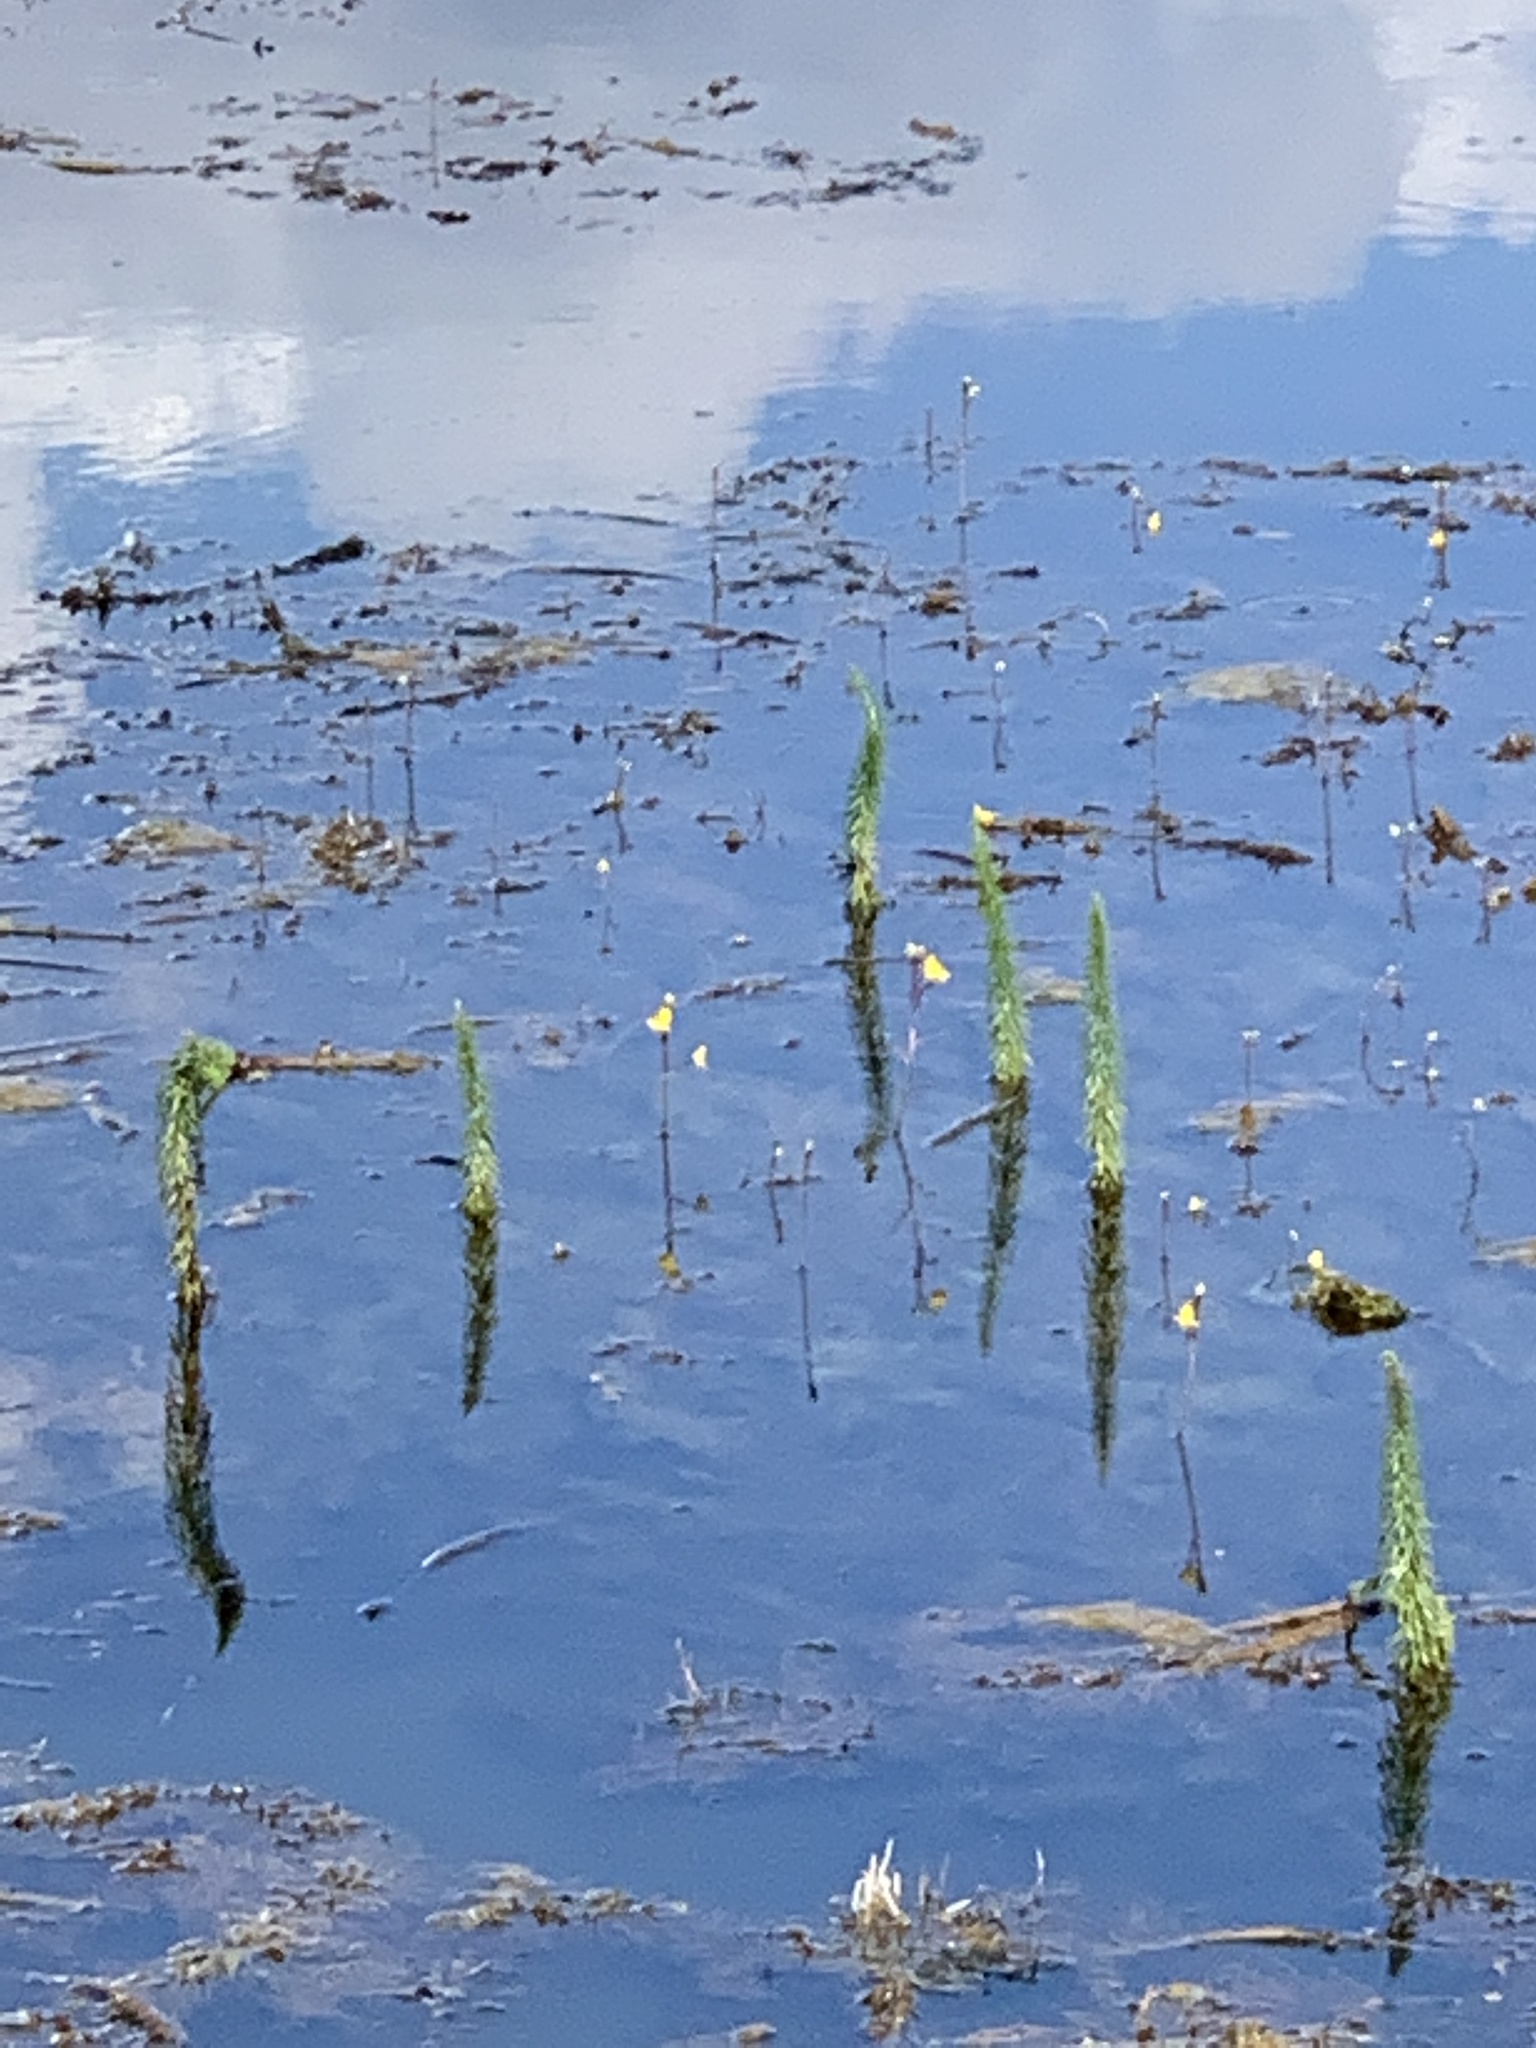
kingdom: Plantae
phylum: Tracheophyta
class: Magnoliopsida
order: Lamiales
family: Plantaginaceae
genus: Hippuris
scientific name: Hippuris vulgaris
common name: Mare's-tail
